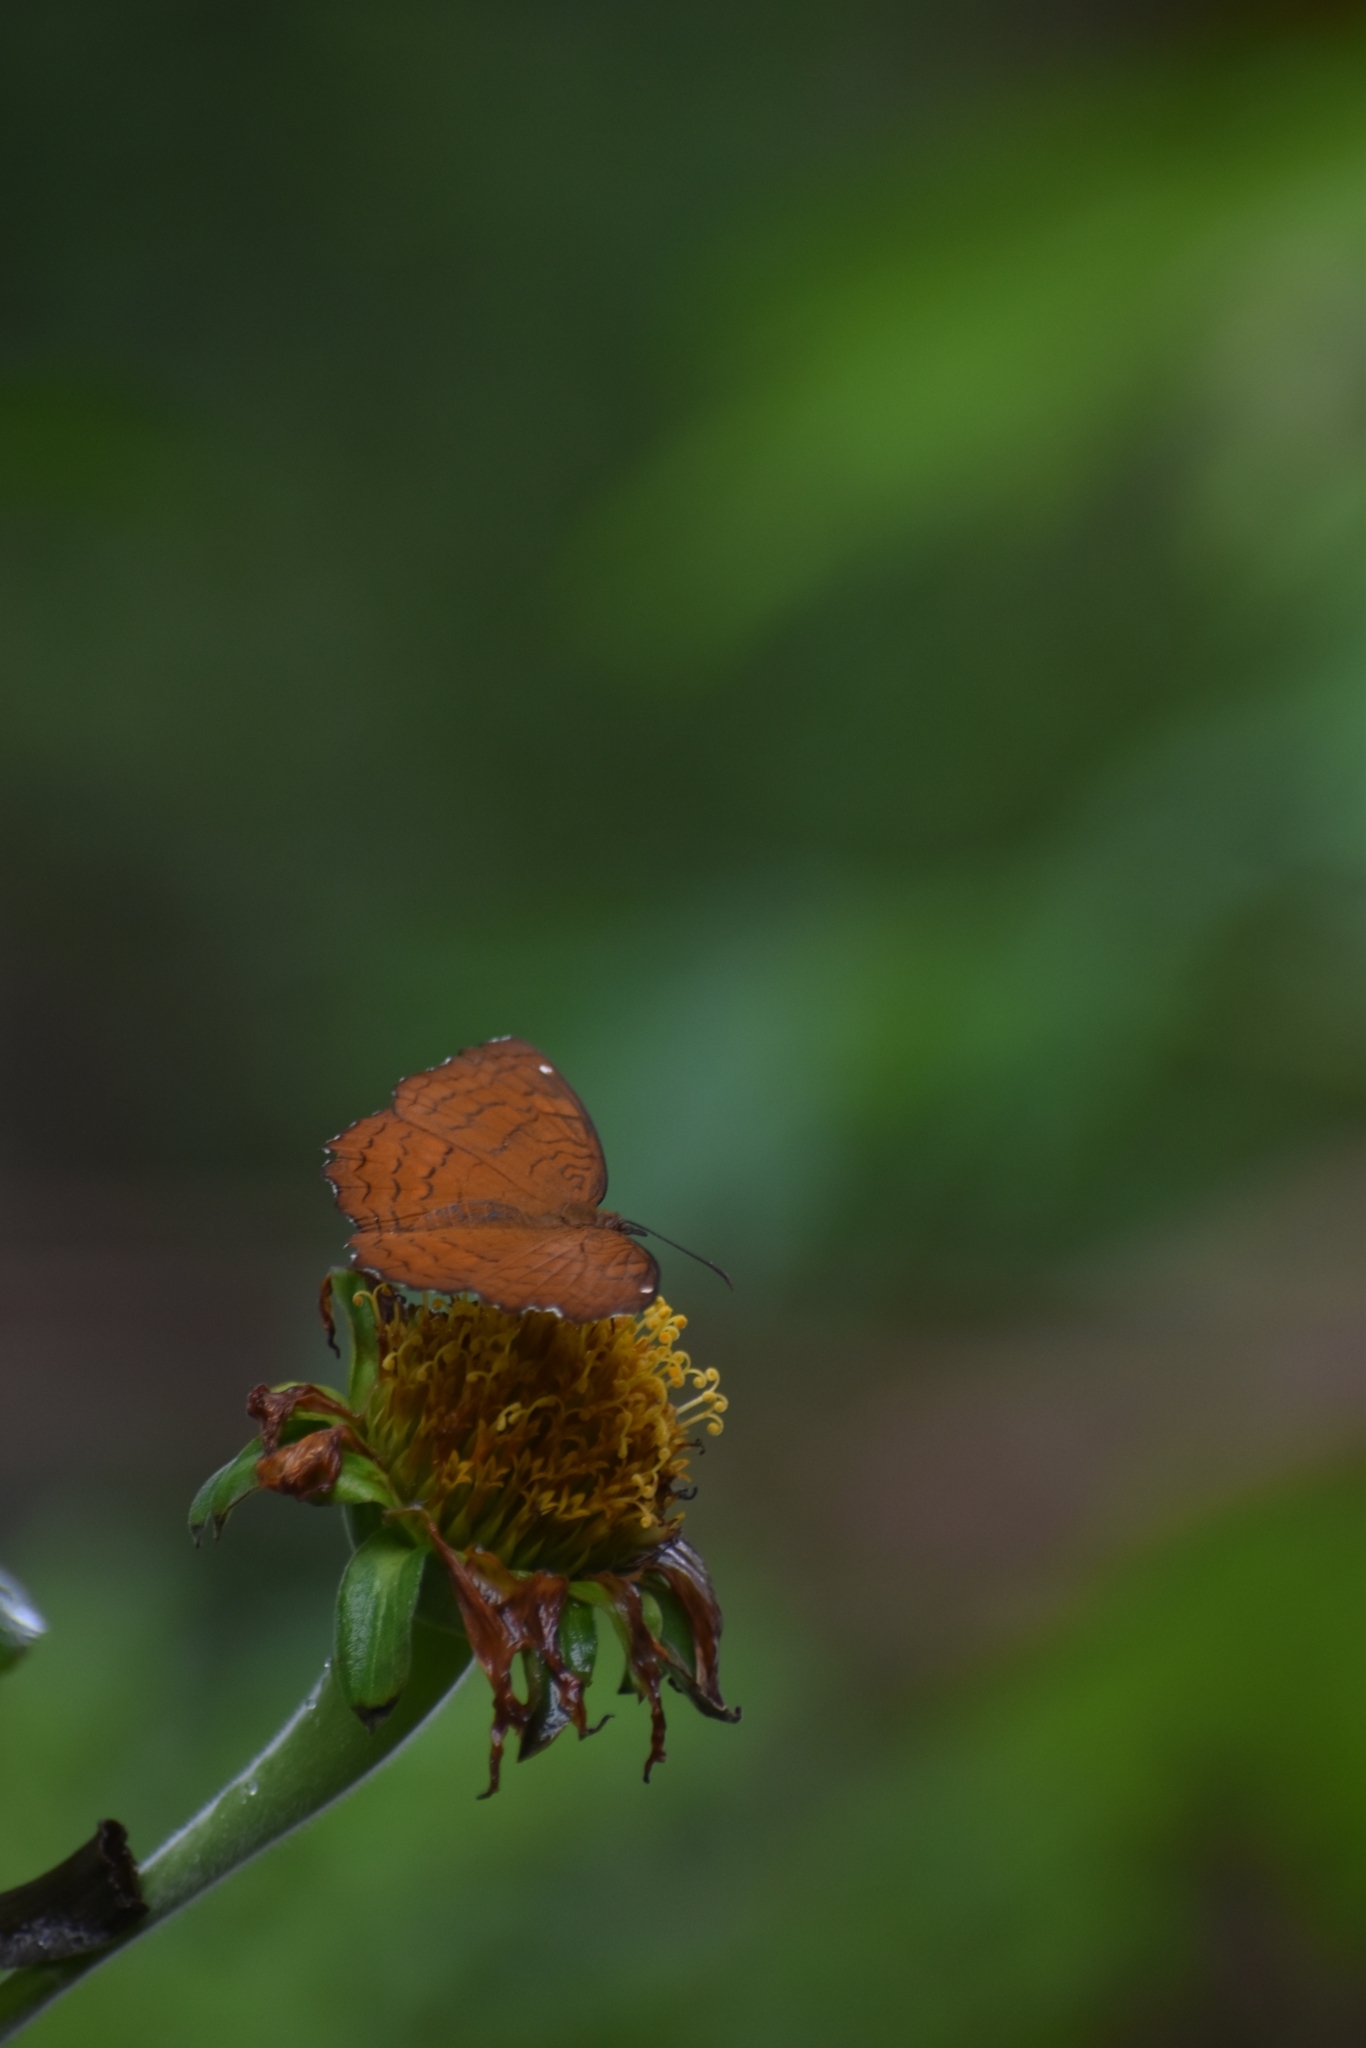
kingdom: Animalia
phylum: Arthropoda
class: Insecta
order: Lepidoptera
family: Nymphalidae
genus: Ariadne
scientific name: Ariadne ariadne
